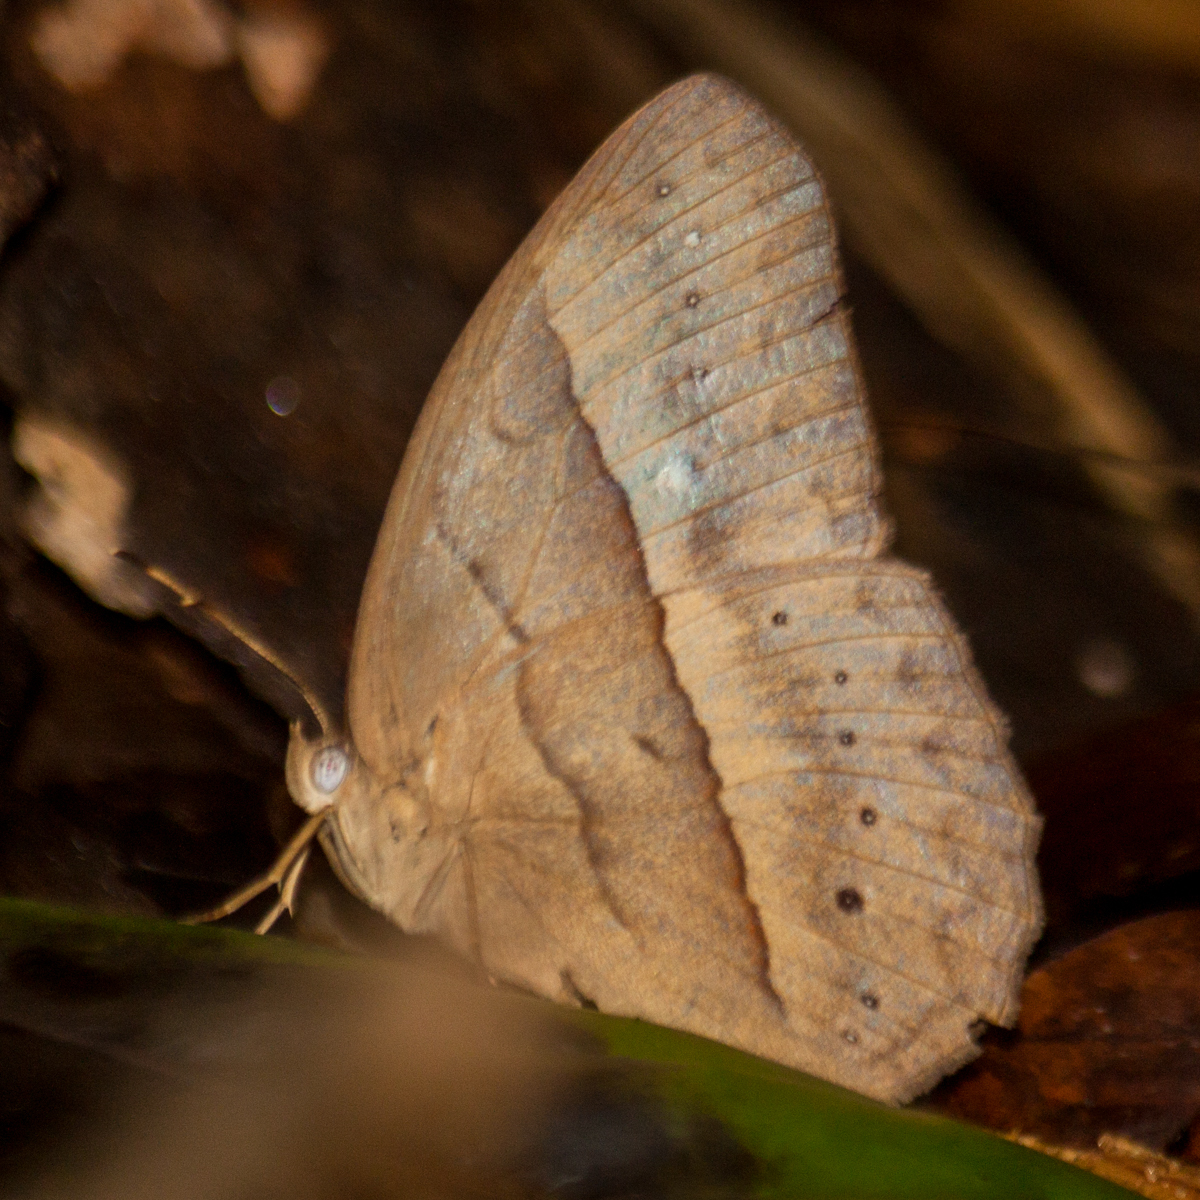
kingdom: Animalia
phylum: Arthropoda
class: Insecta
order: Lepidoptera
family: Nymphalidae
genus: Mycalesis
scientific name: Mycalesis mnasicles
